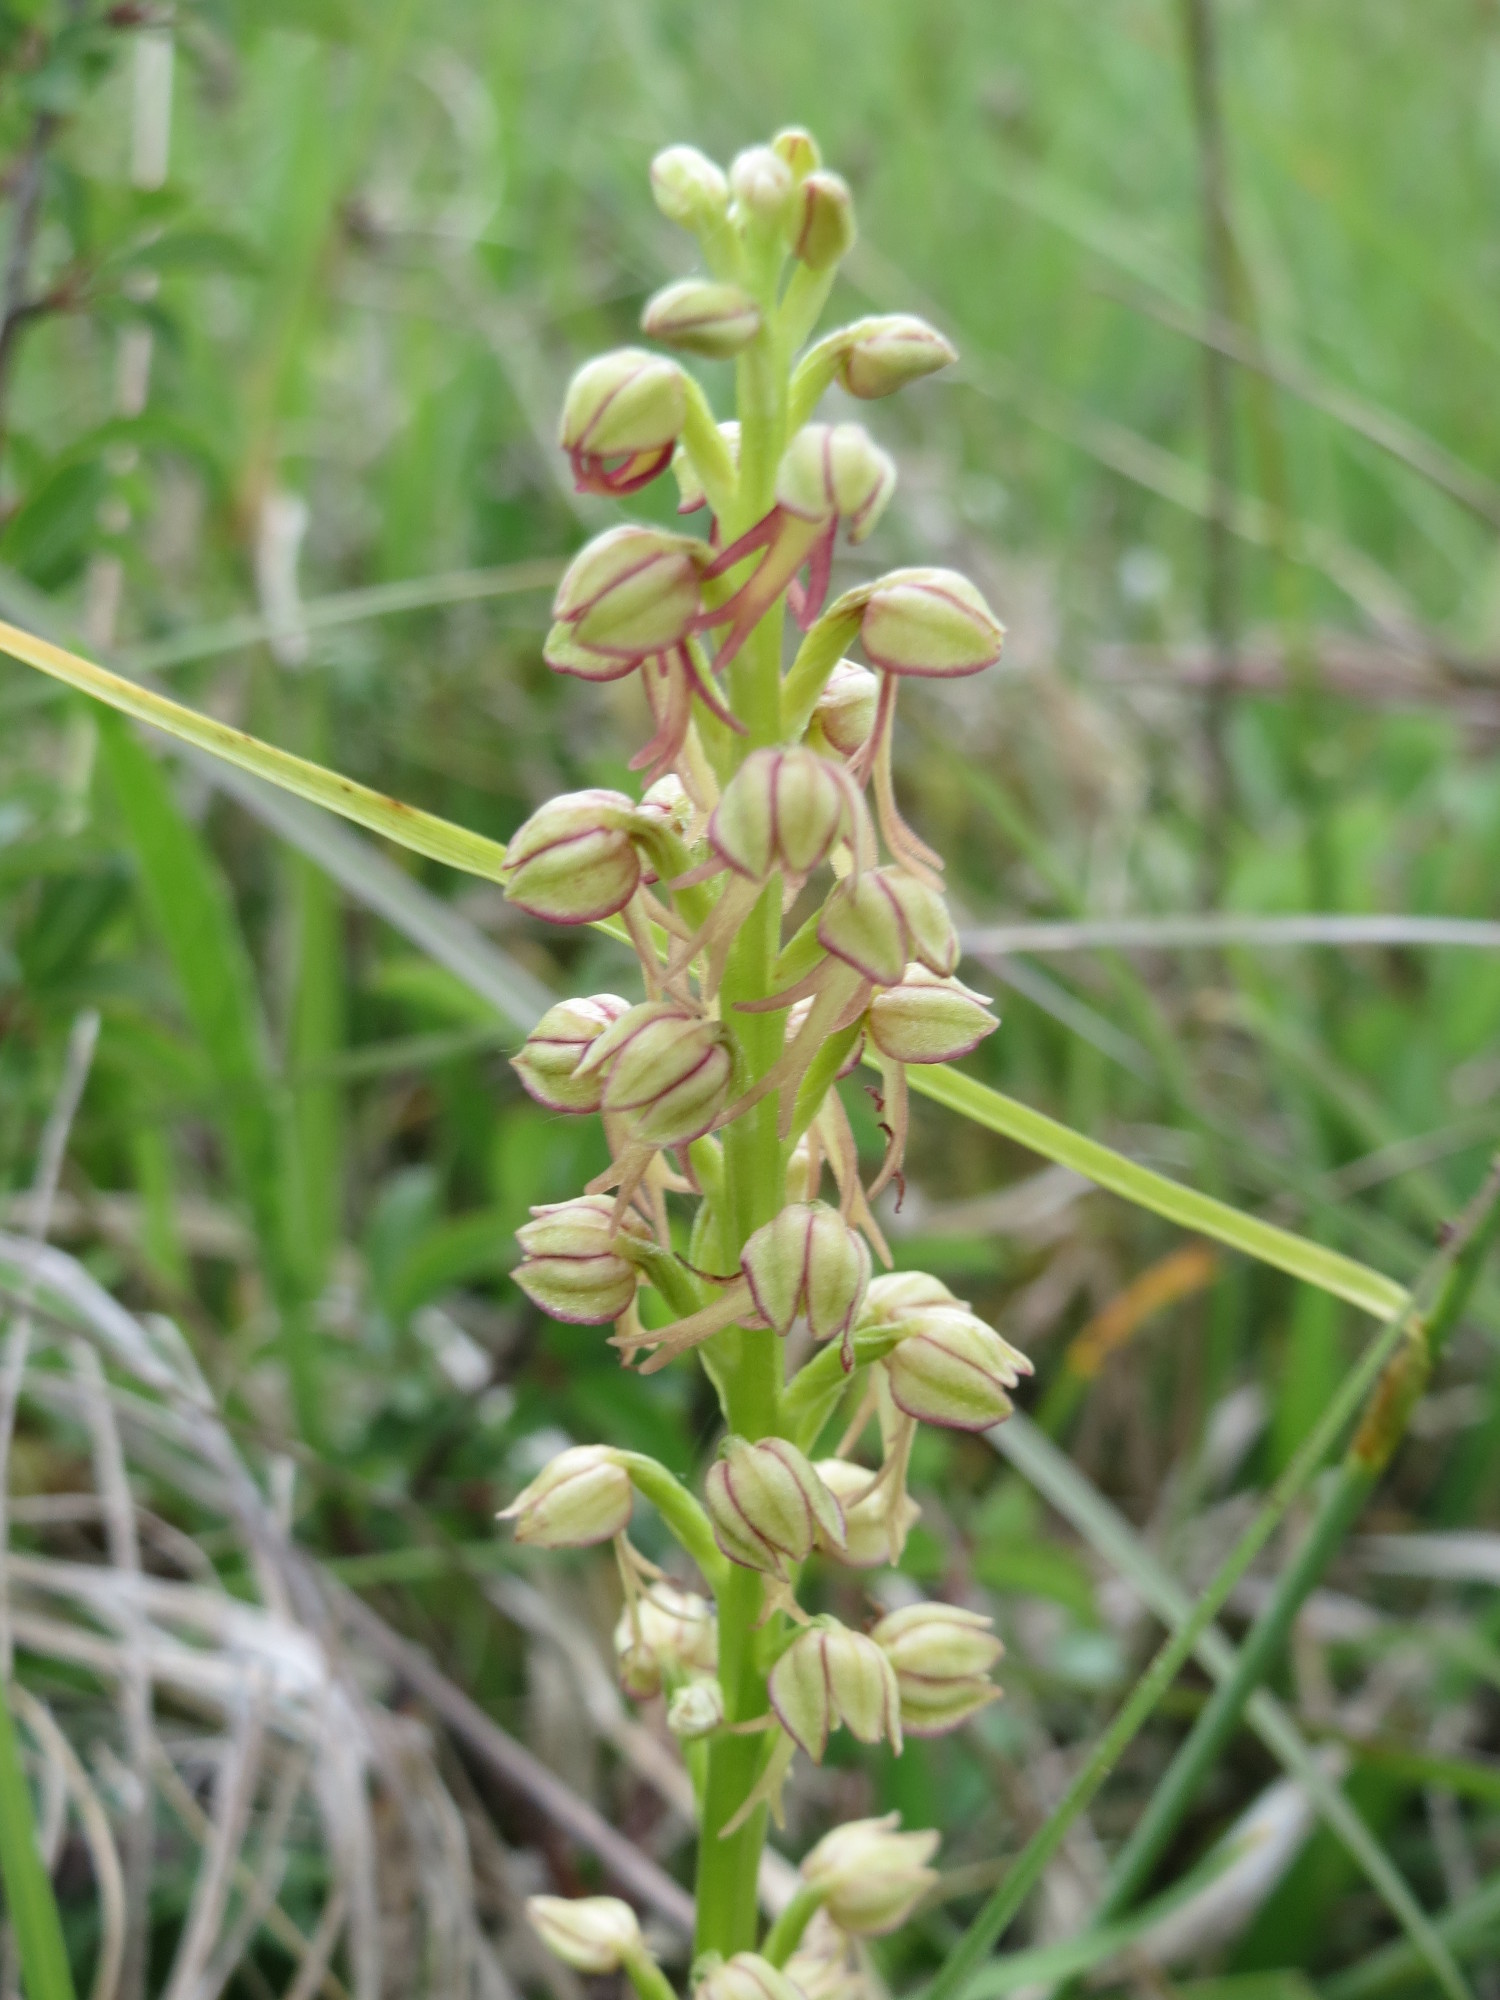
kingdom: Plantae
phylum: Tracheophyta
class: Liliopsida
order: Asparagales
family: Orchidaceae
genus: Orchis
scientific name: Orchis anthropophora
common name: Man orchid
